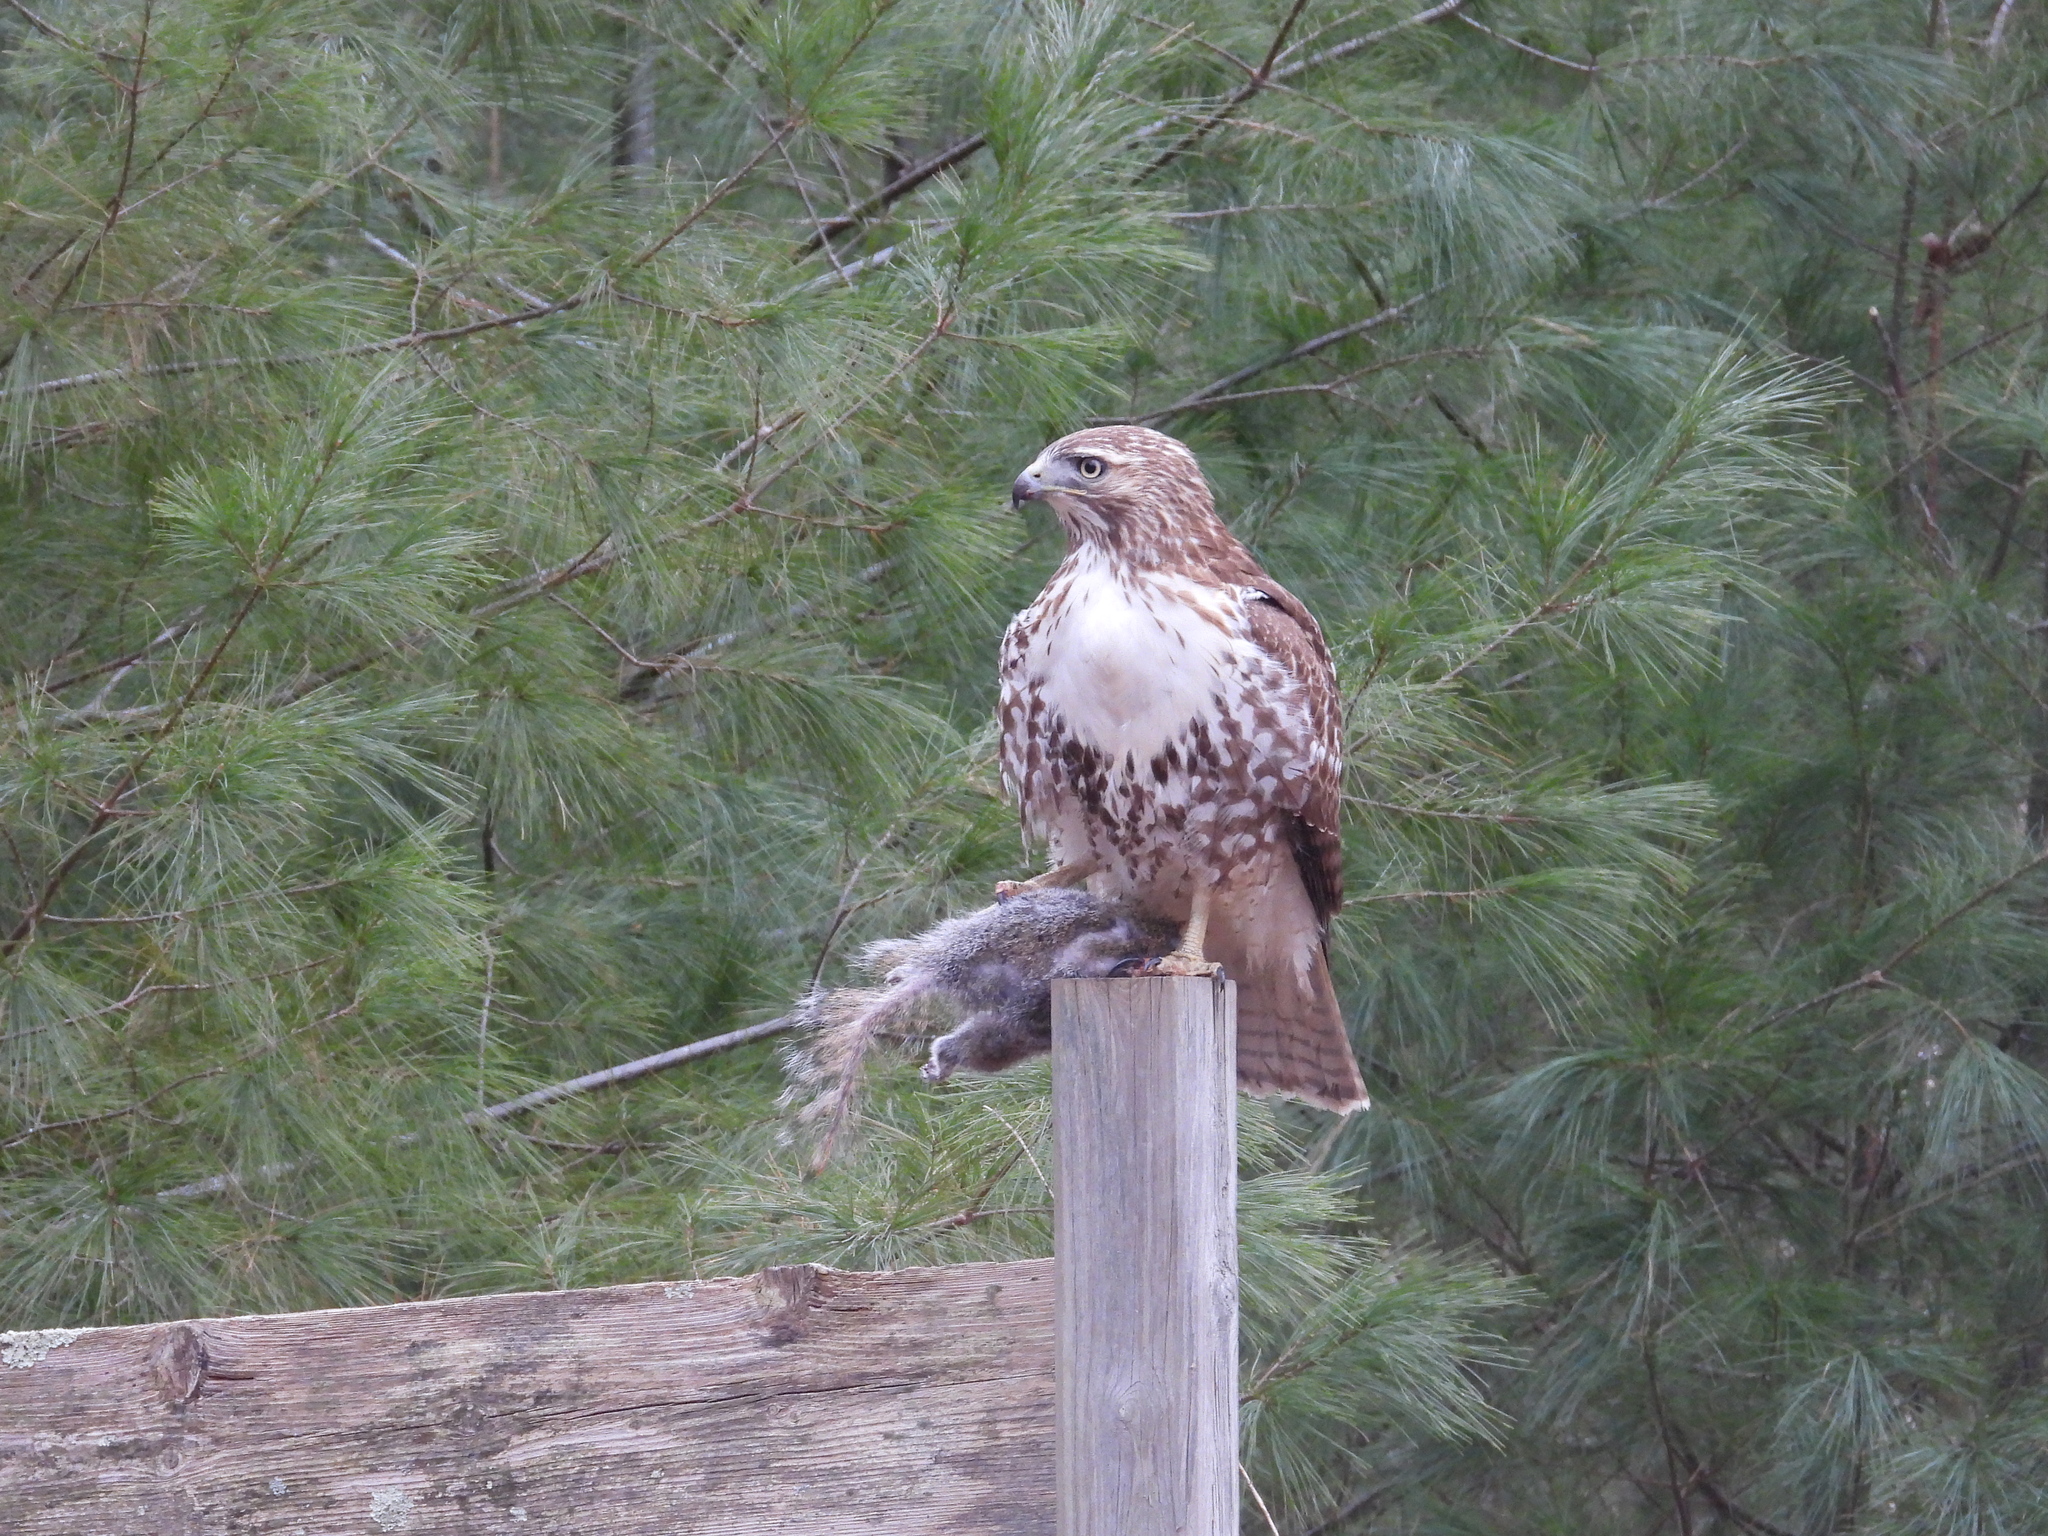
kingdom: Animalia
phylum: Chordata
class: Mammalia
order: Rodentia
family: Sciuridae
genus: Sciurus
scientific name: Sciurus carolinensis
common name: Eastern gray squirrel
